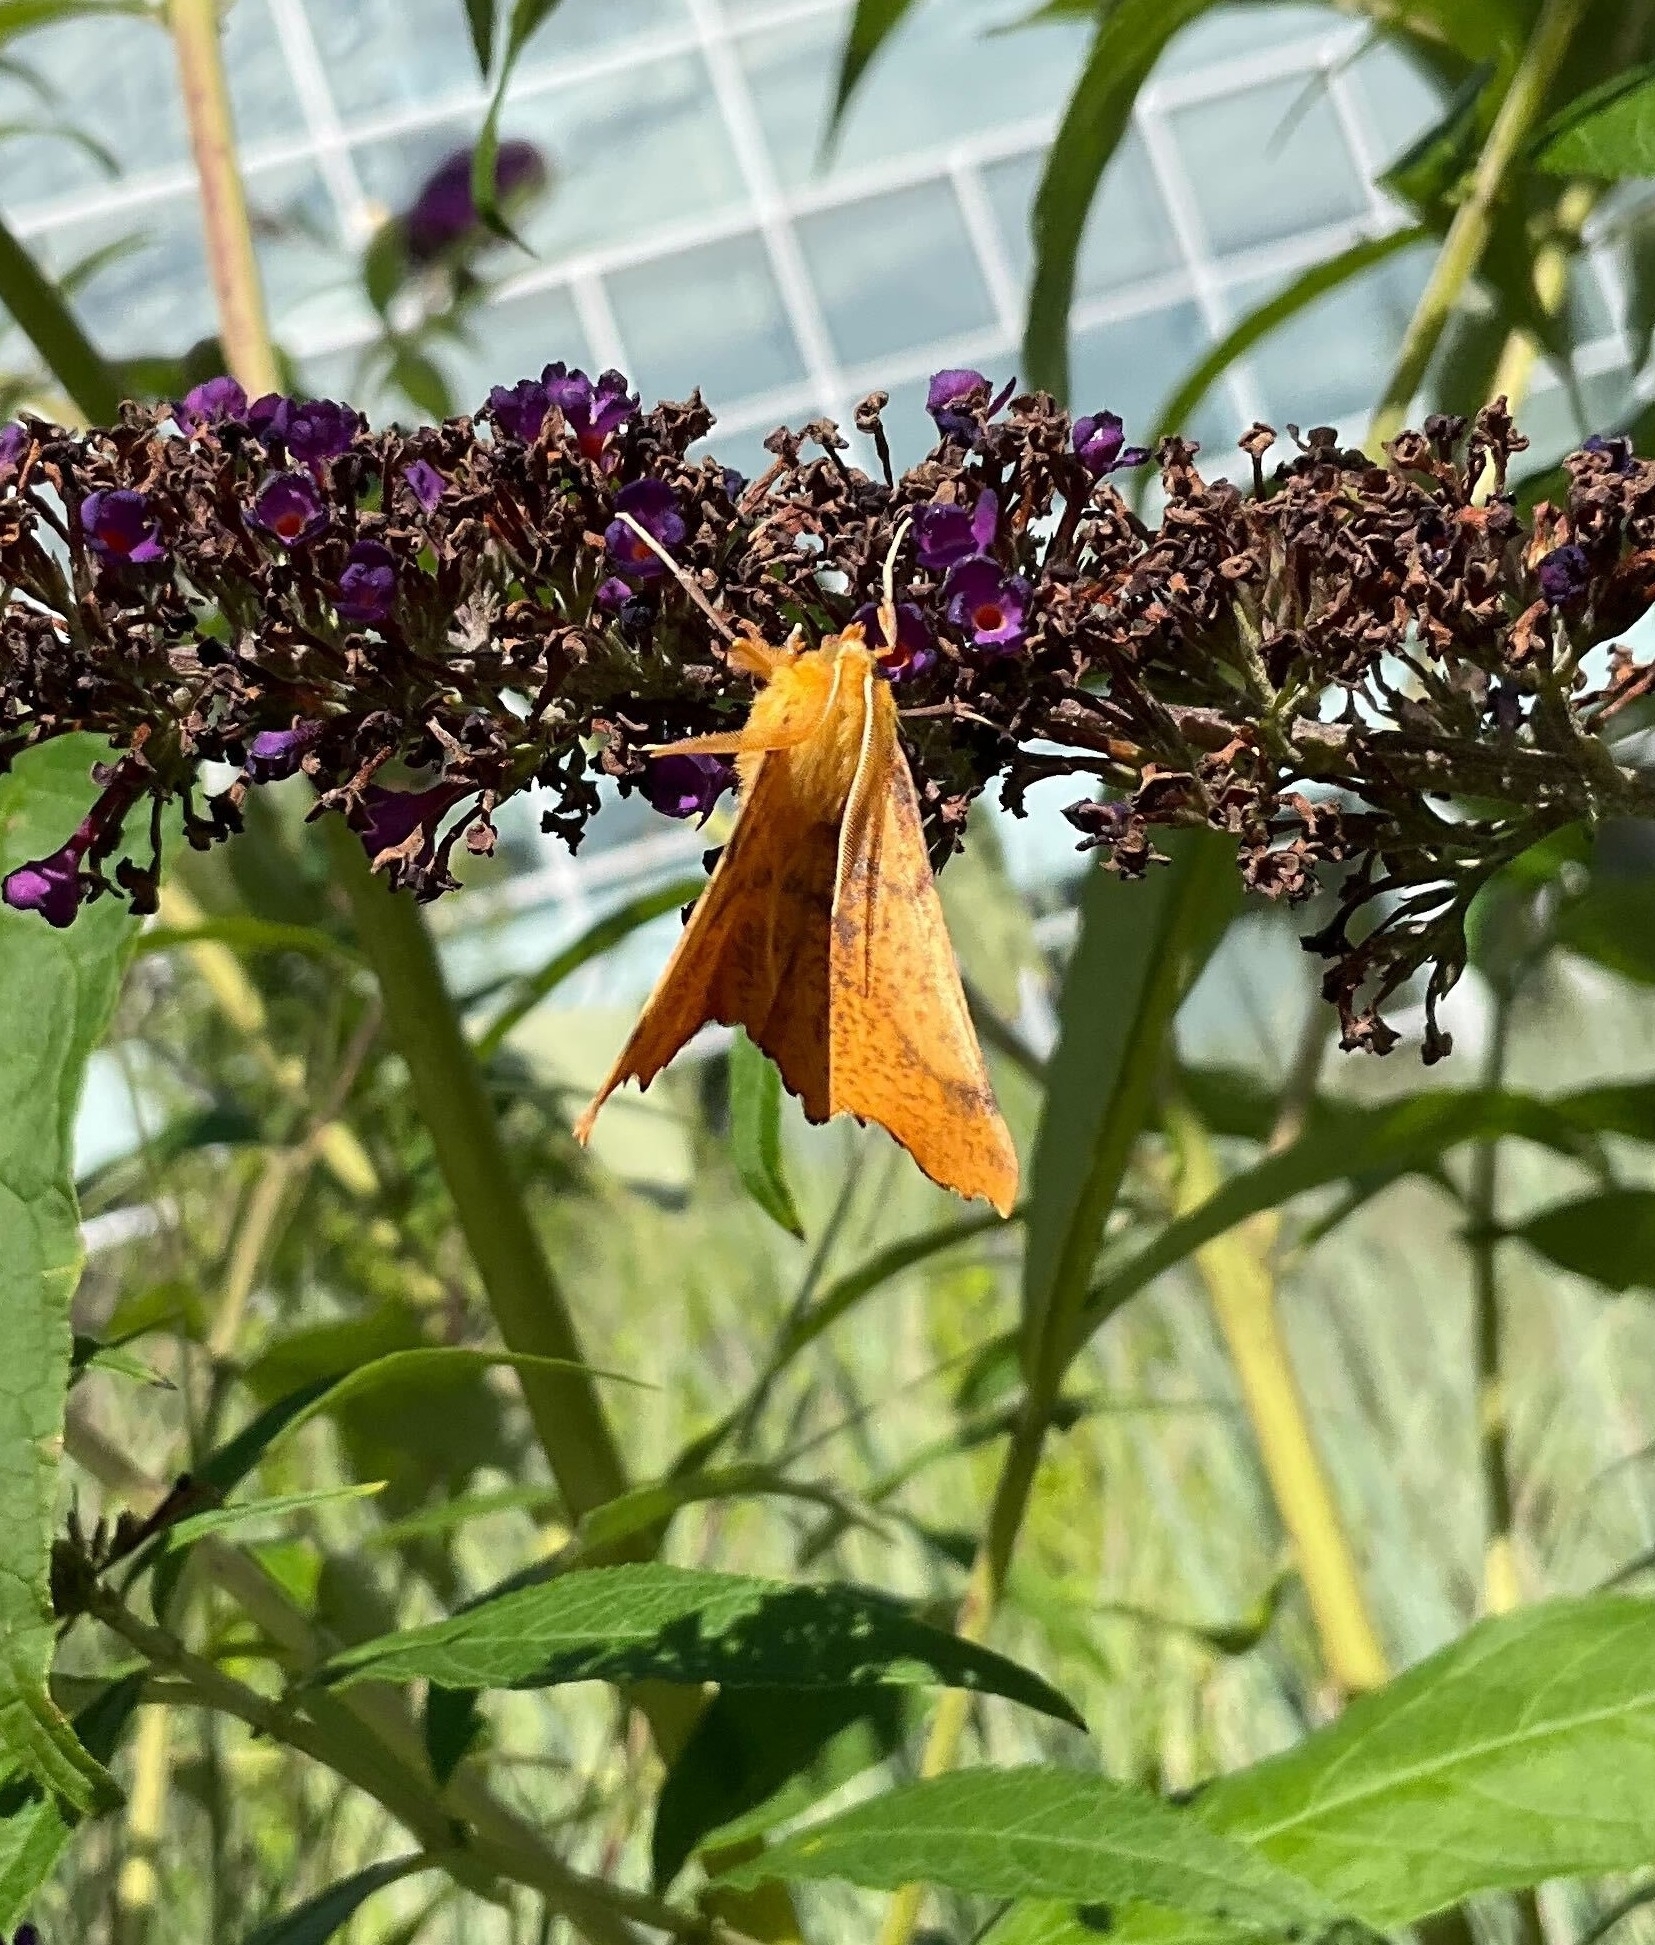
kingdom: Animalia
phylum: Arthropoda
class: Insecta
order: Lepidoptera
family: Geometridae
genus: Ennomos
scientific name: Ennomos magnaria
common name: Maple spanworm
